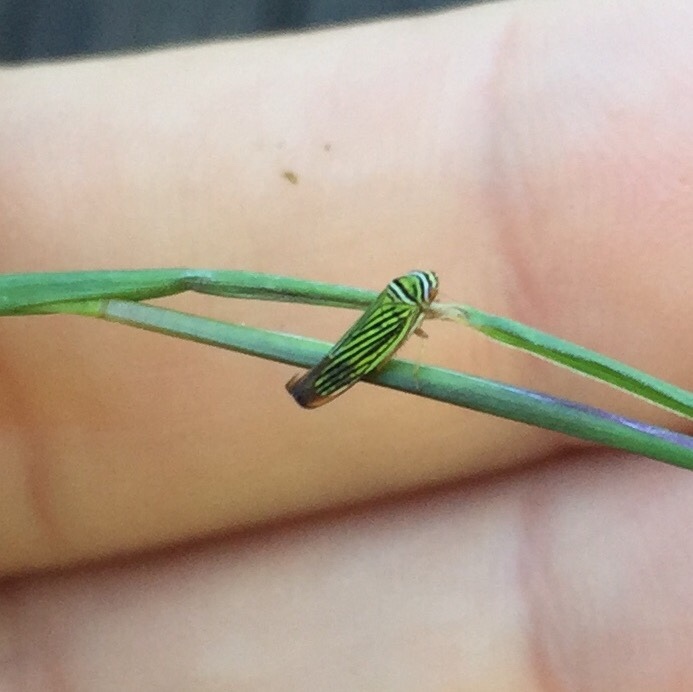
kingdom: Animalia
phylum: Arthropoda
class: Insecta
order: Hemiptera
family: Cicadellidae
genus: Tylozygus
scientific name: Tylozygus bifidus
